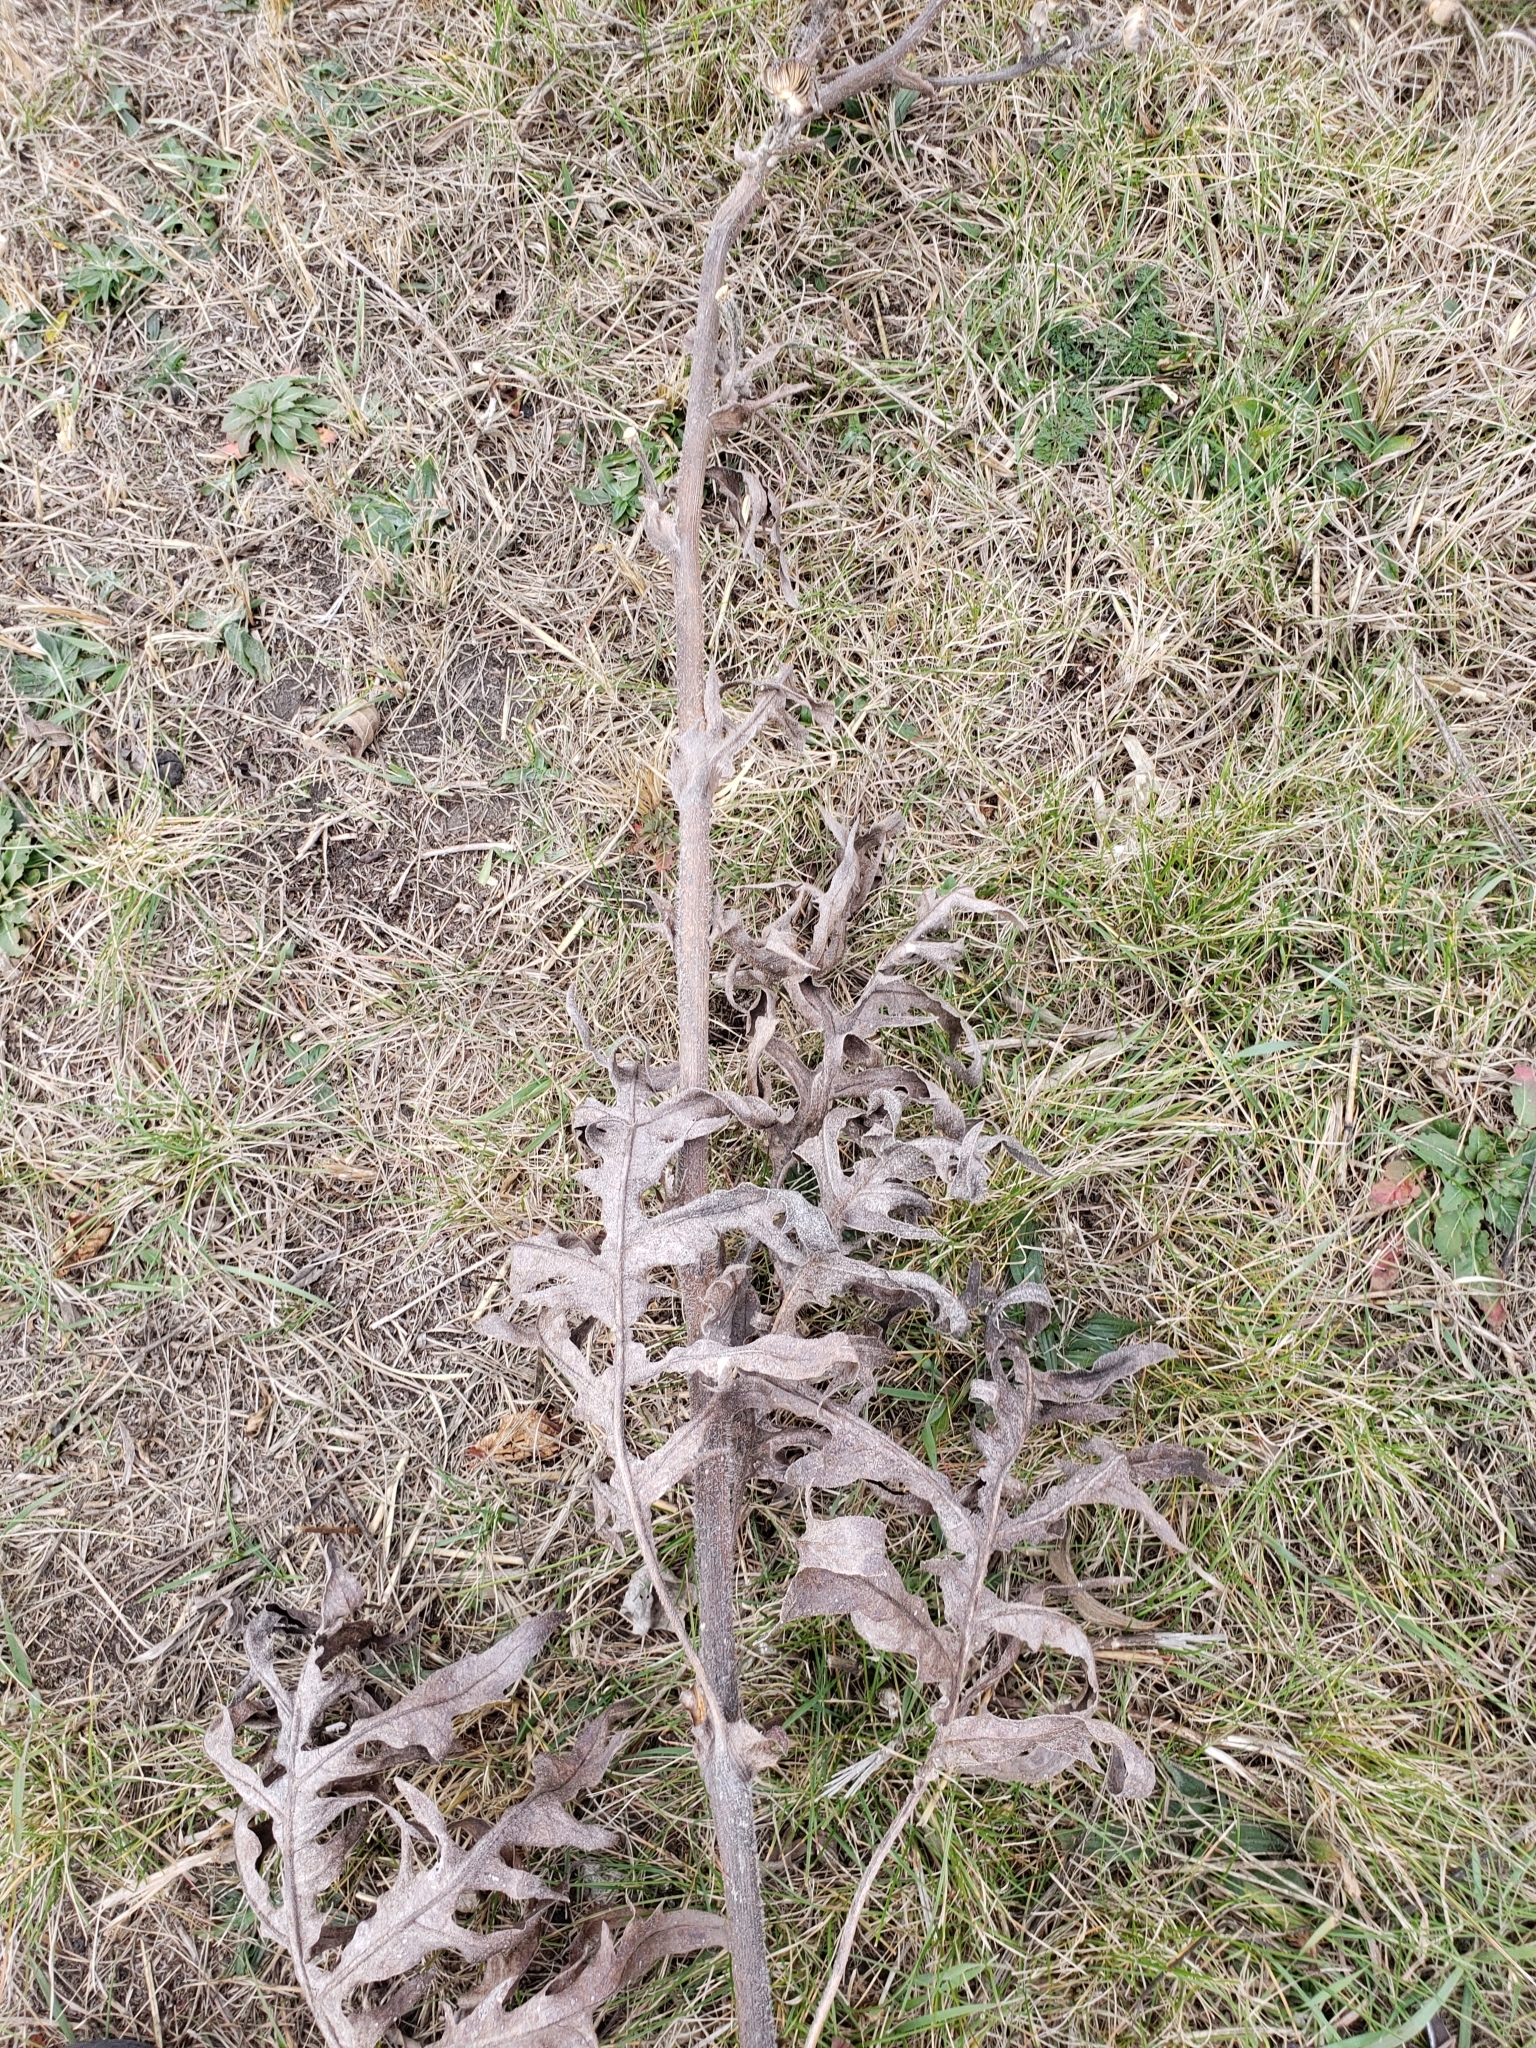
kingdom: Animalia
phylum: Arthropoda
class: Insecta
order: Hymenoptera
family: Cynipidae
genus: Antistrophus
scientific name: Antistrophus
